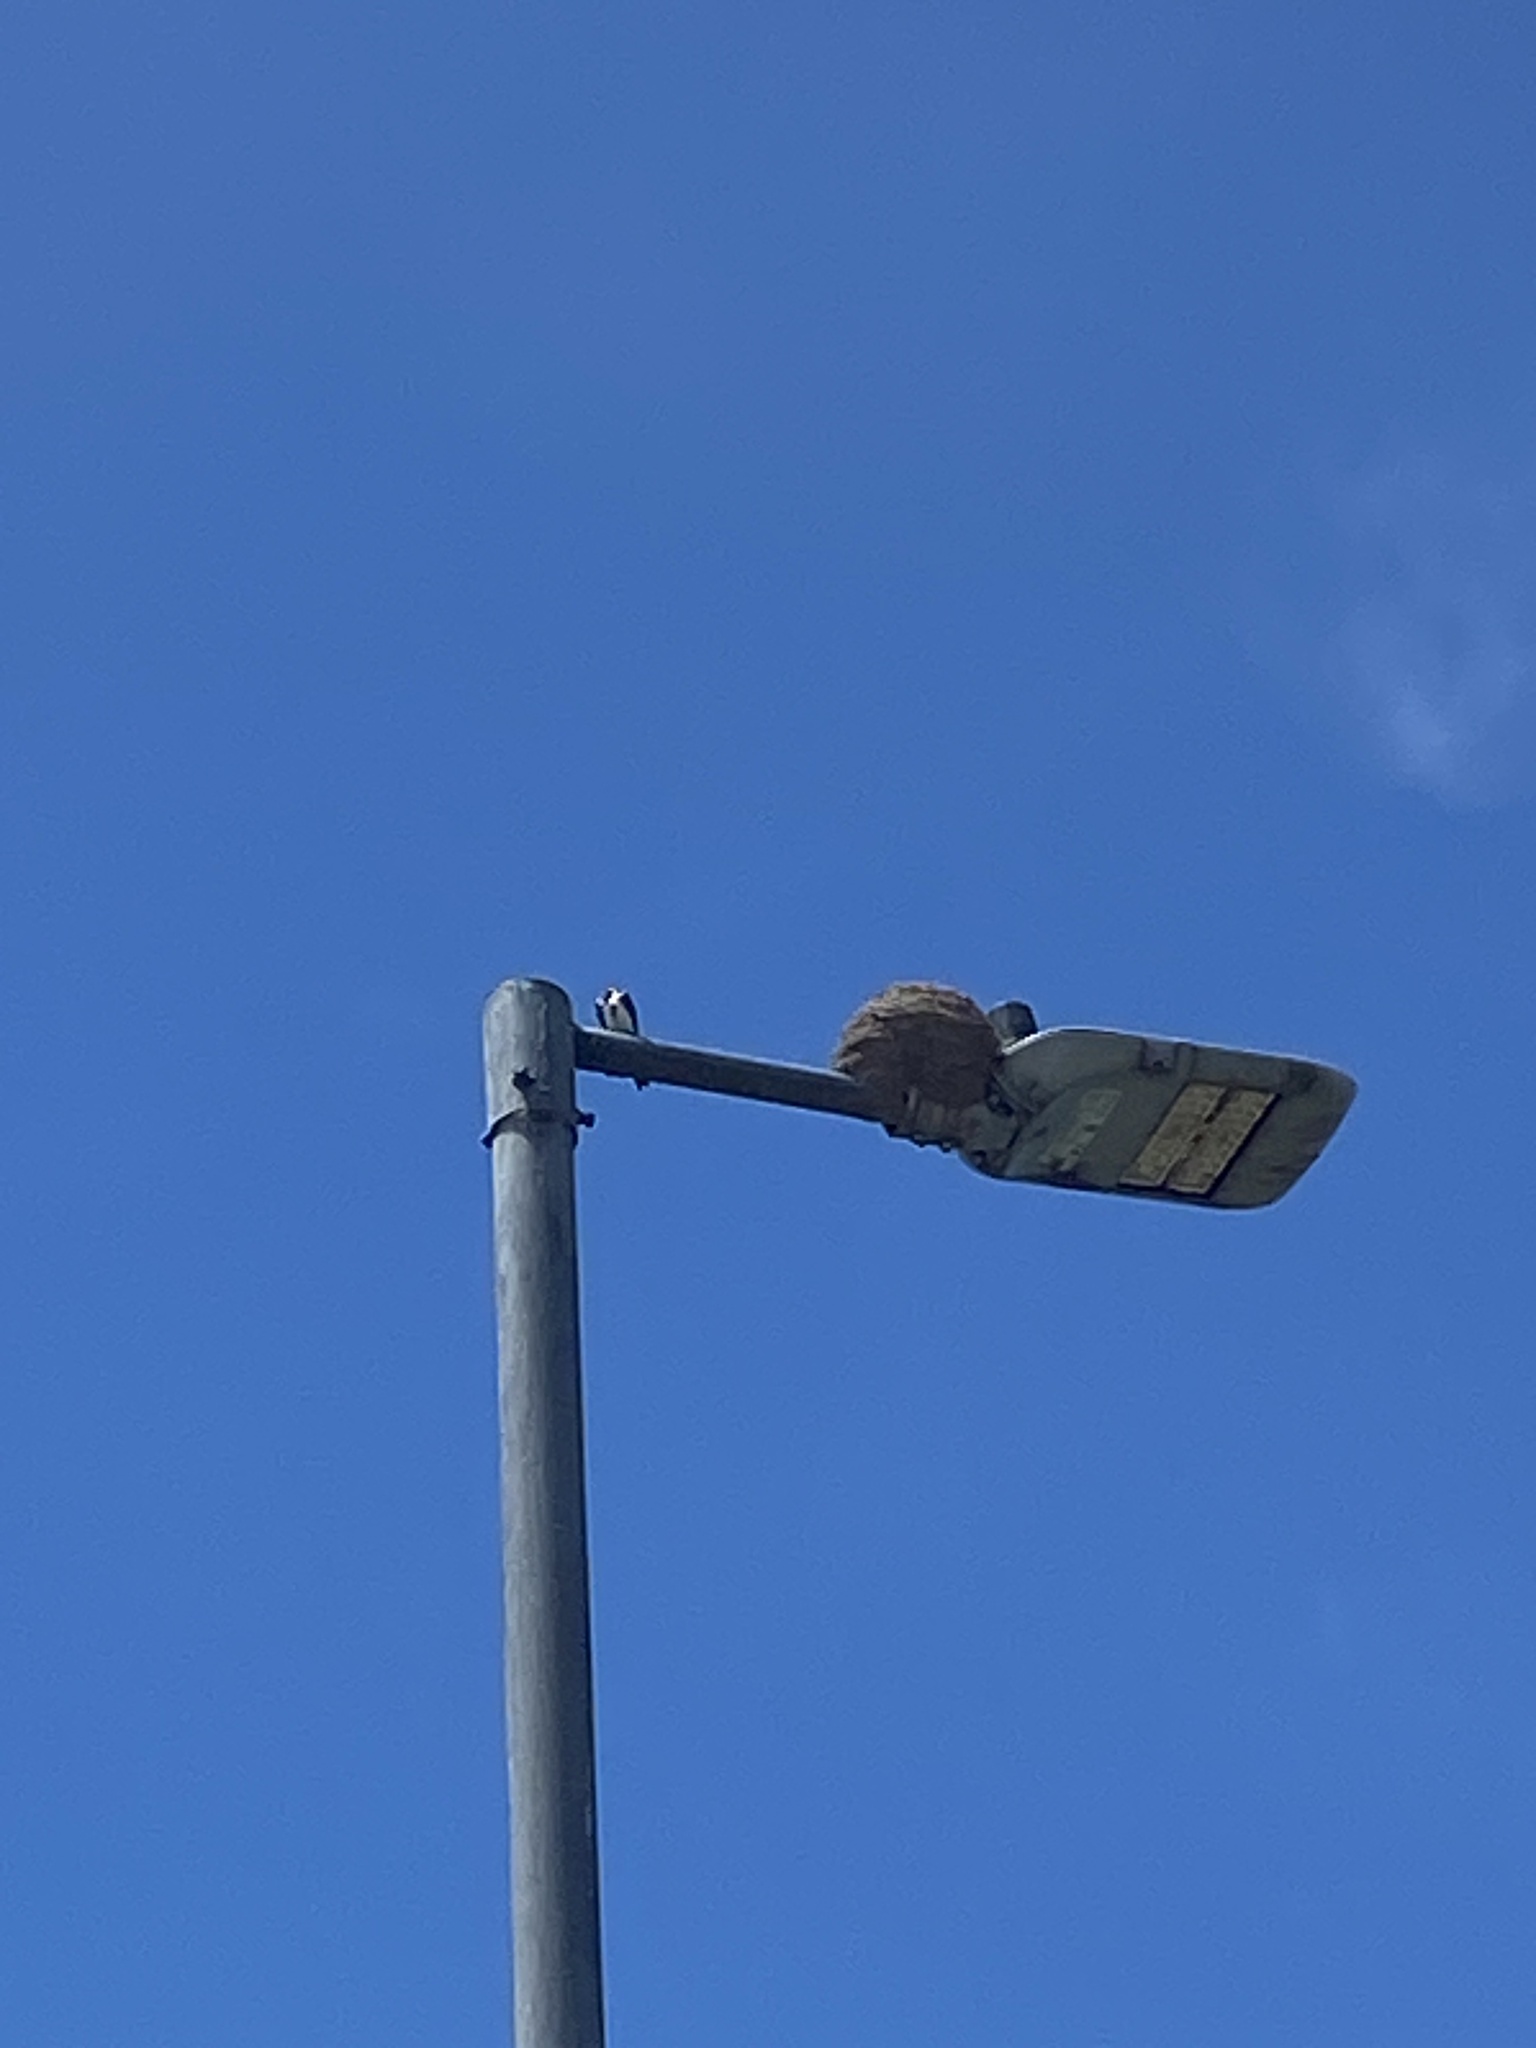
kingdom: Animalia
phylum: Chordata
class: Aves
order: Passeriformes
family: Hirundinidae
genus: Progne
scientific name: Progne tapera
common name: Brown-chested martin
